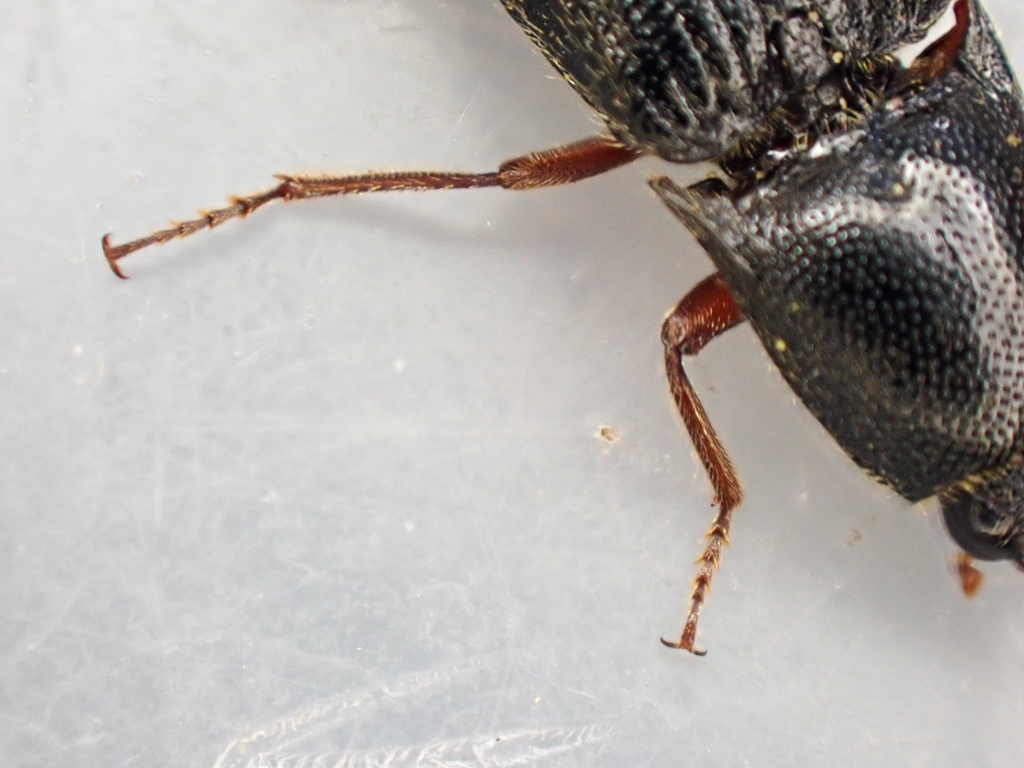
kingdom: Animalia
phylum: Arthropoda
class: Insecta
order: Coleoptera
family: Elateridae
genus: Melanotus
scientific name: Melanotus longulus
